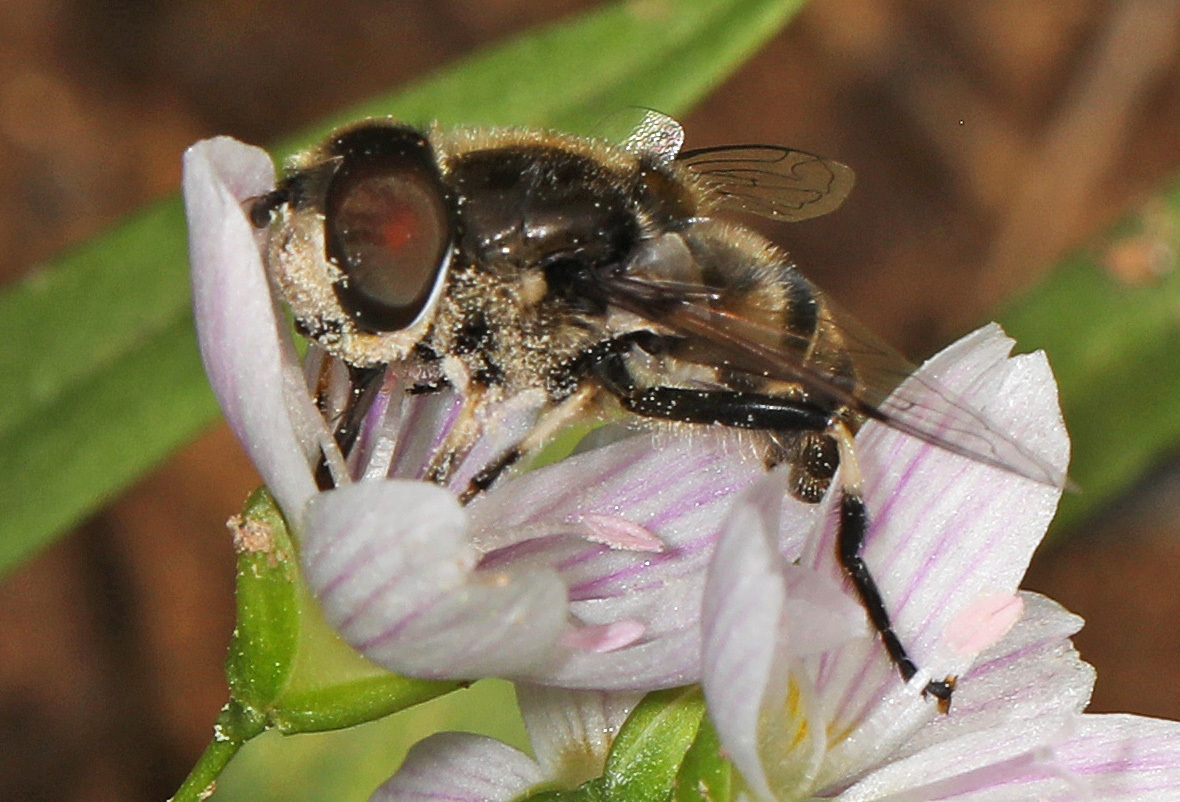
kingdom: Animalia
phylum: Arthropoda
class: Insecta
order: Diptera
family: Syrphidae
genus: Eristalis
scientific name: Eristalis dimidiata
